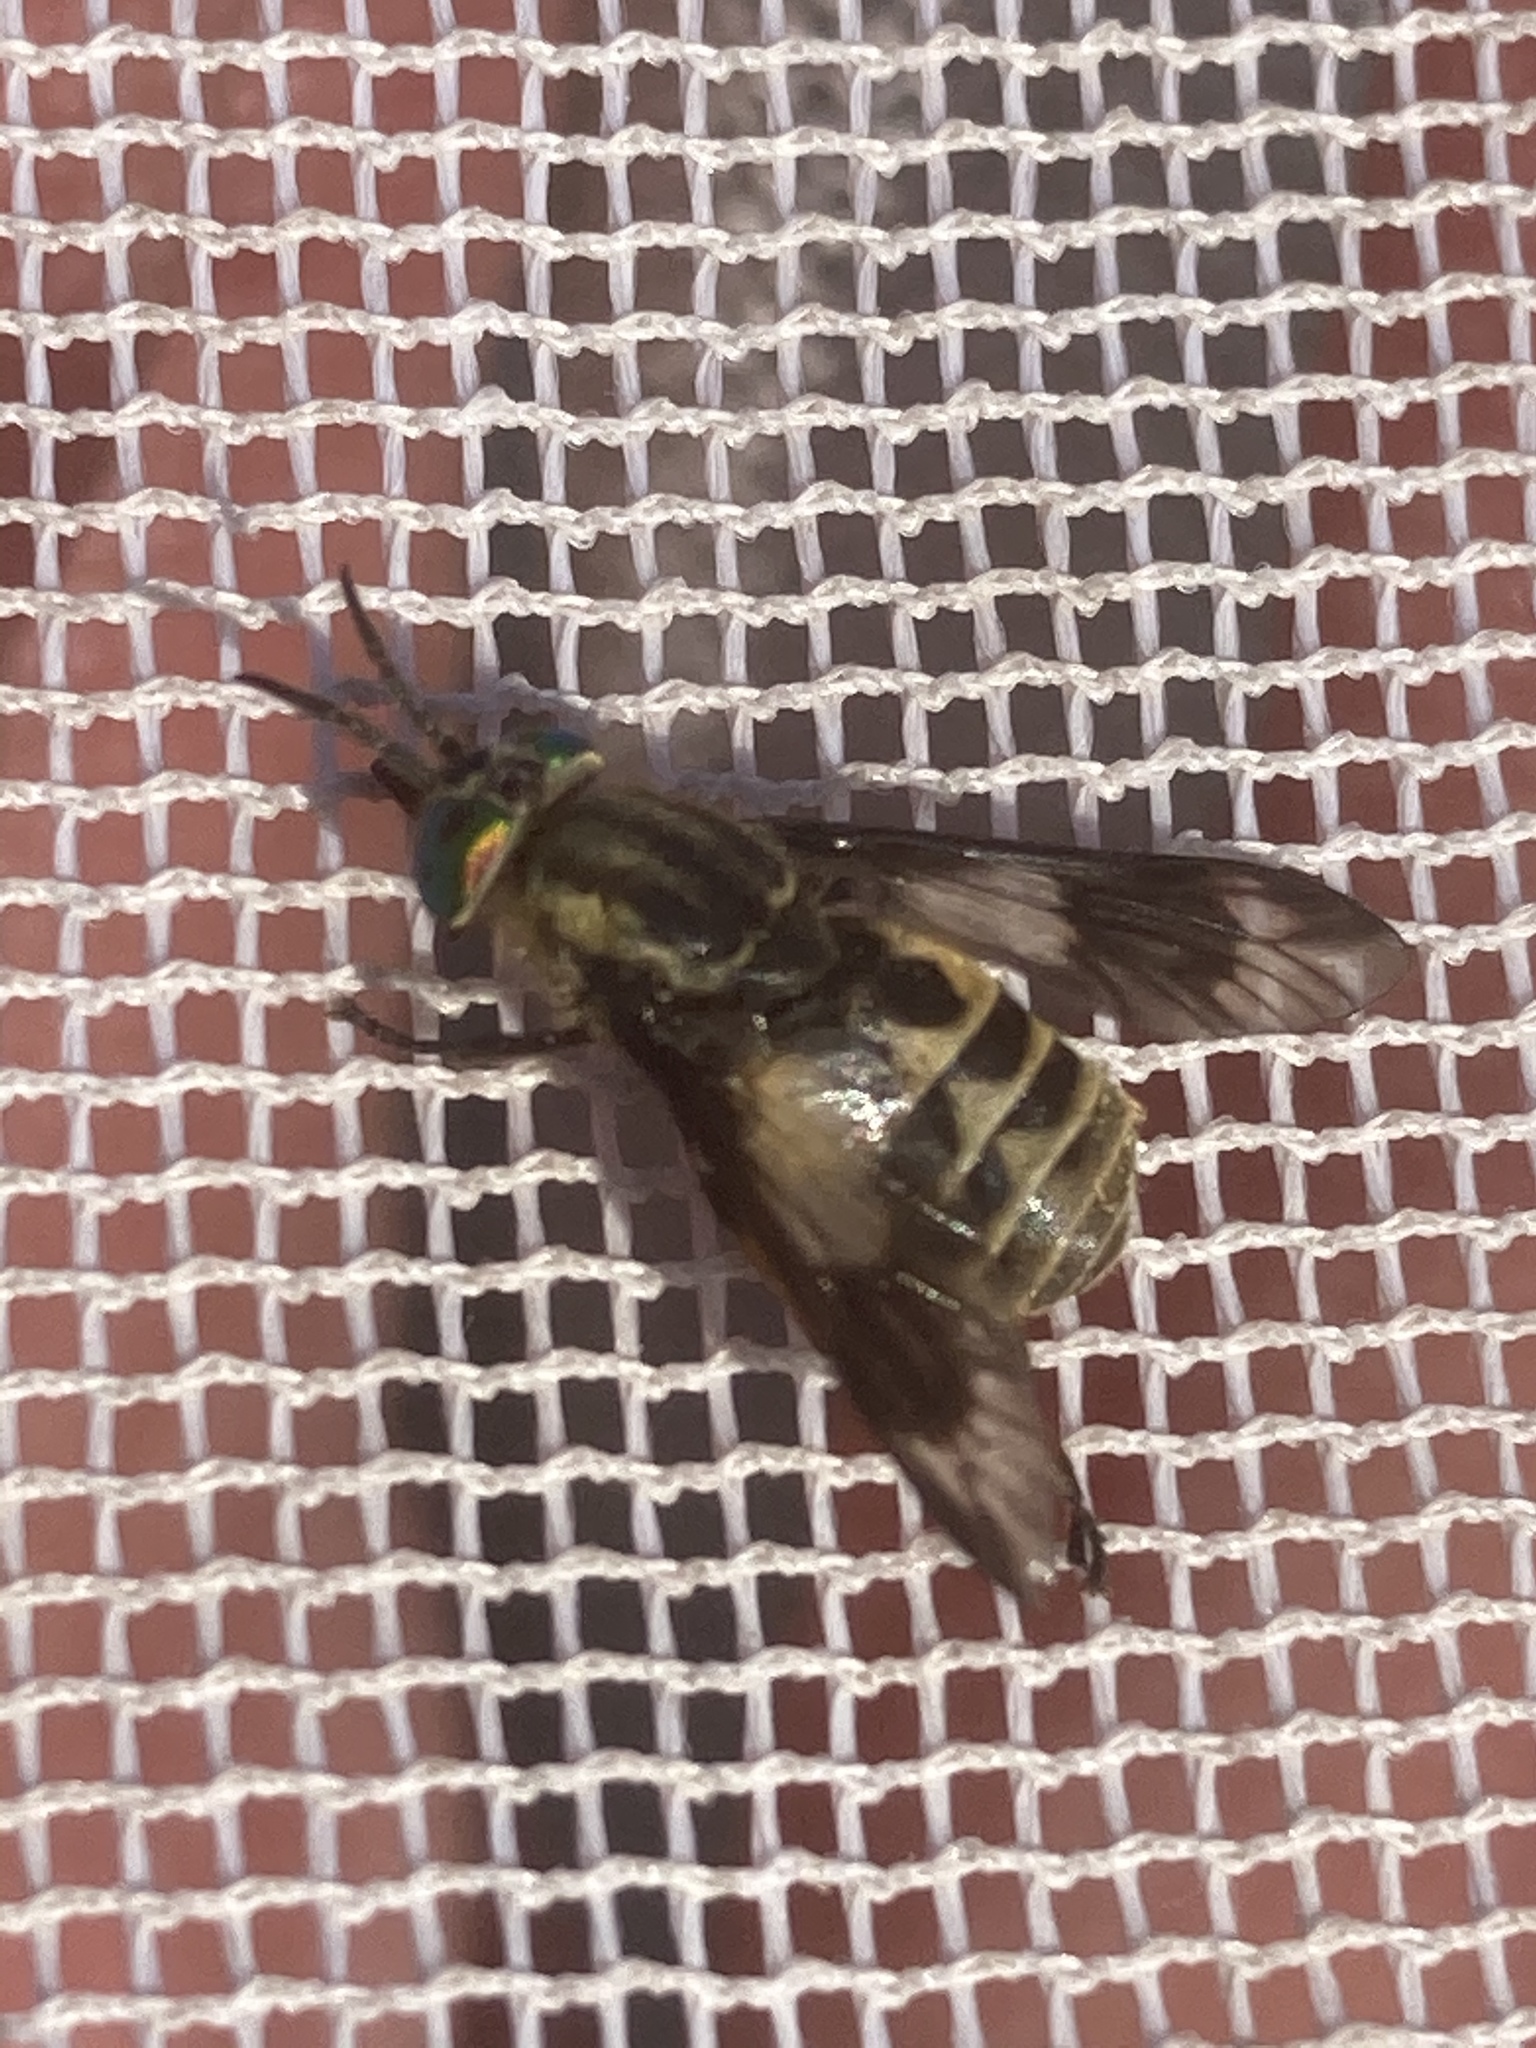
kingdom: Animalia
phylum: Arthropoda
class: Insecta
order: Diptera
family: Tabanidae
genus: Chrysops
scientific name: Chrysops relictus
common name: Twin-lobed deerfly
